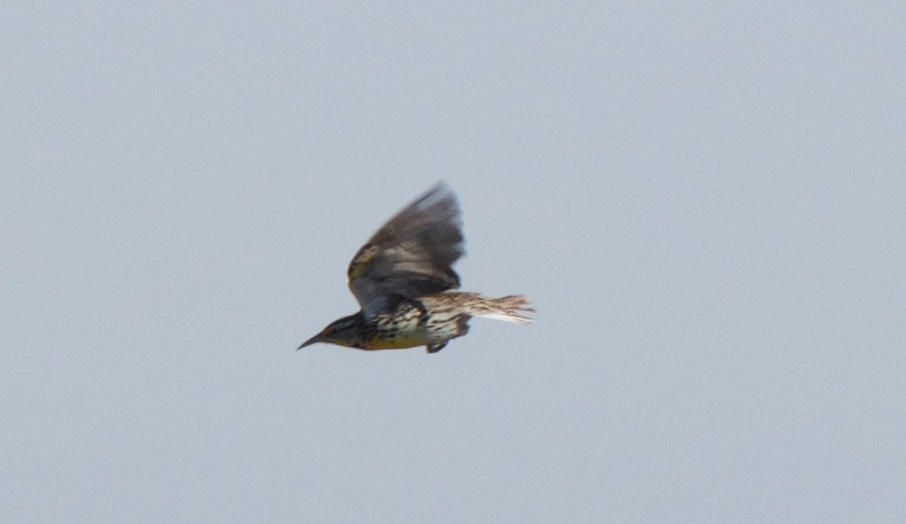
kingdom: Animalia
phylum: Chordata
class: Aves
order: Passeriformes
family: Icteridae
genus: Sturnella
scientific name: Sturnella neglecta
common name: Western meadowlark
